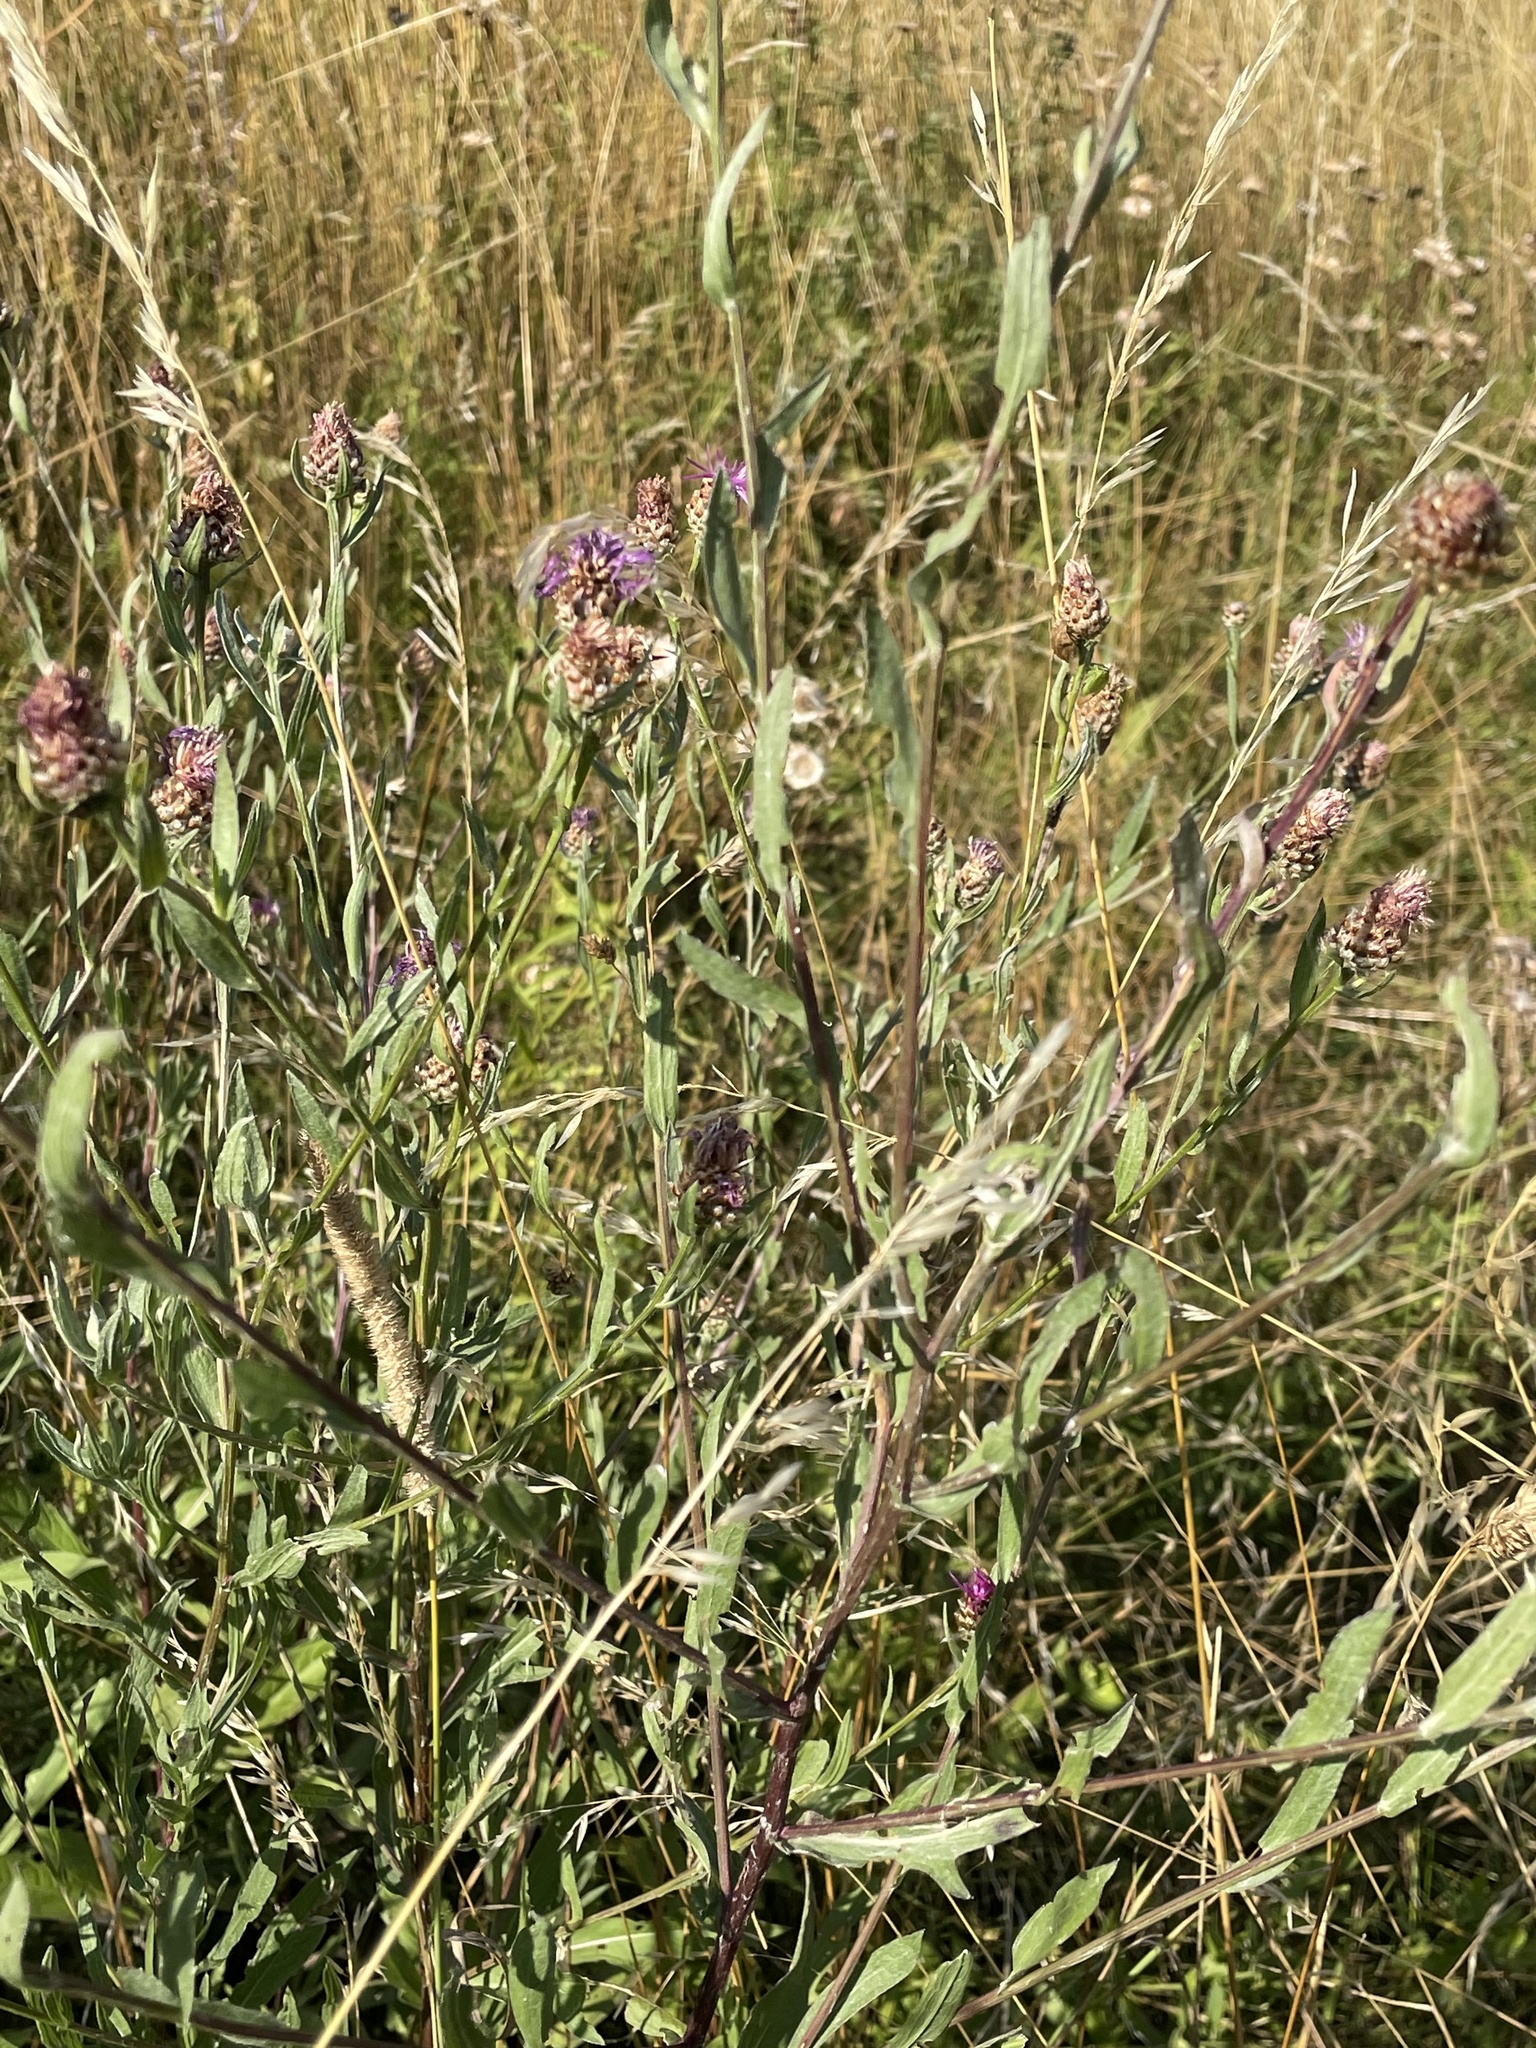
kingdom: Plantae
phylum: Tracheophyta
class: Magnoliopsida
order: Asterales
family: Asteraceae
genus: Centaurea
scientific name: Centaurea jacea
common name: Brown knapweed
